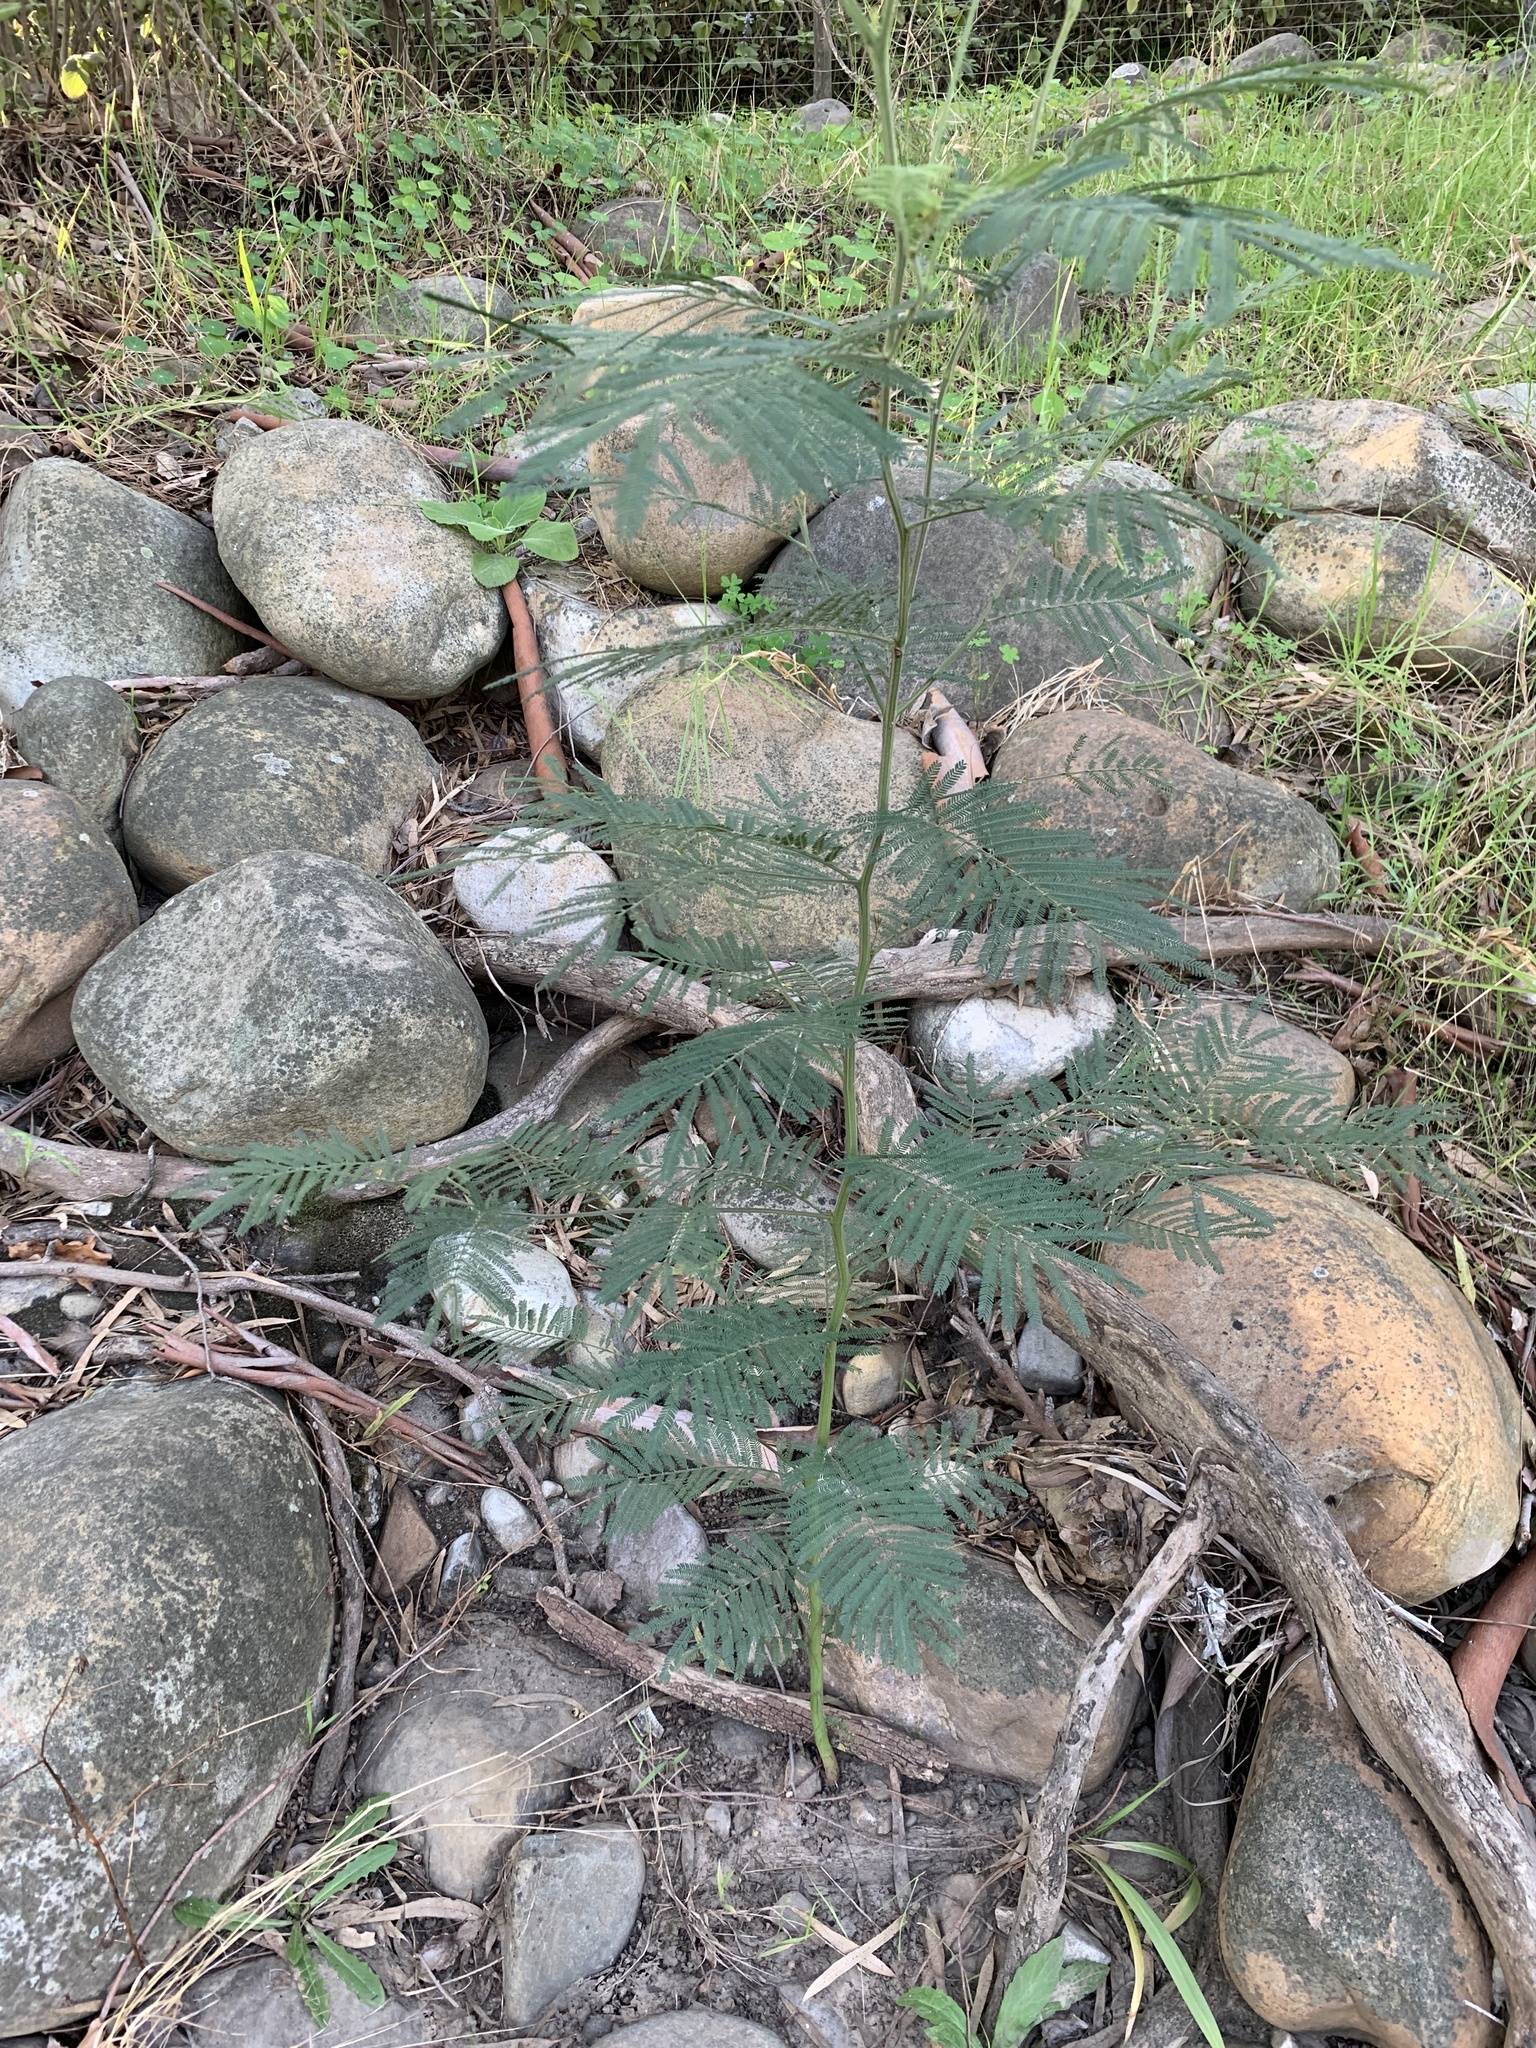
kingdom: Plantae
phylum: Tracheophyta
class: Magnoliopsida
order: Fabales
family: Fabaceae
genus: Acacia
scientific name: Acacia mearnsii
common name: Black wattle
